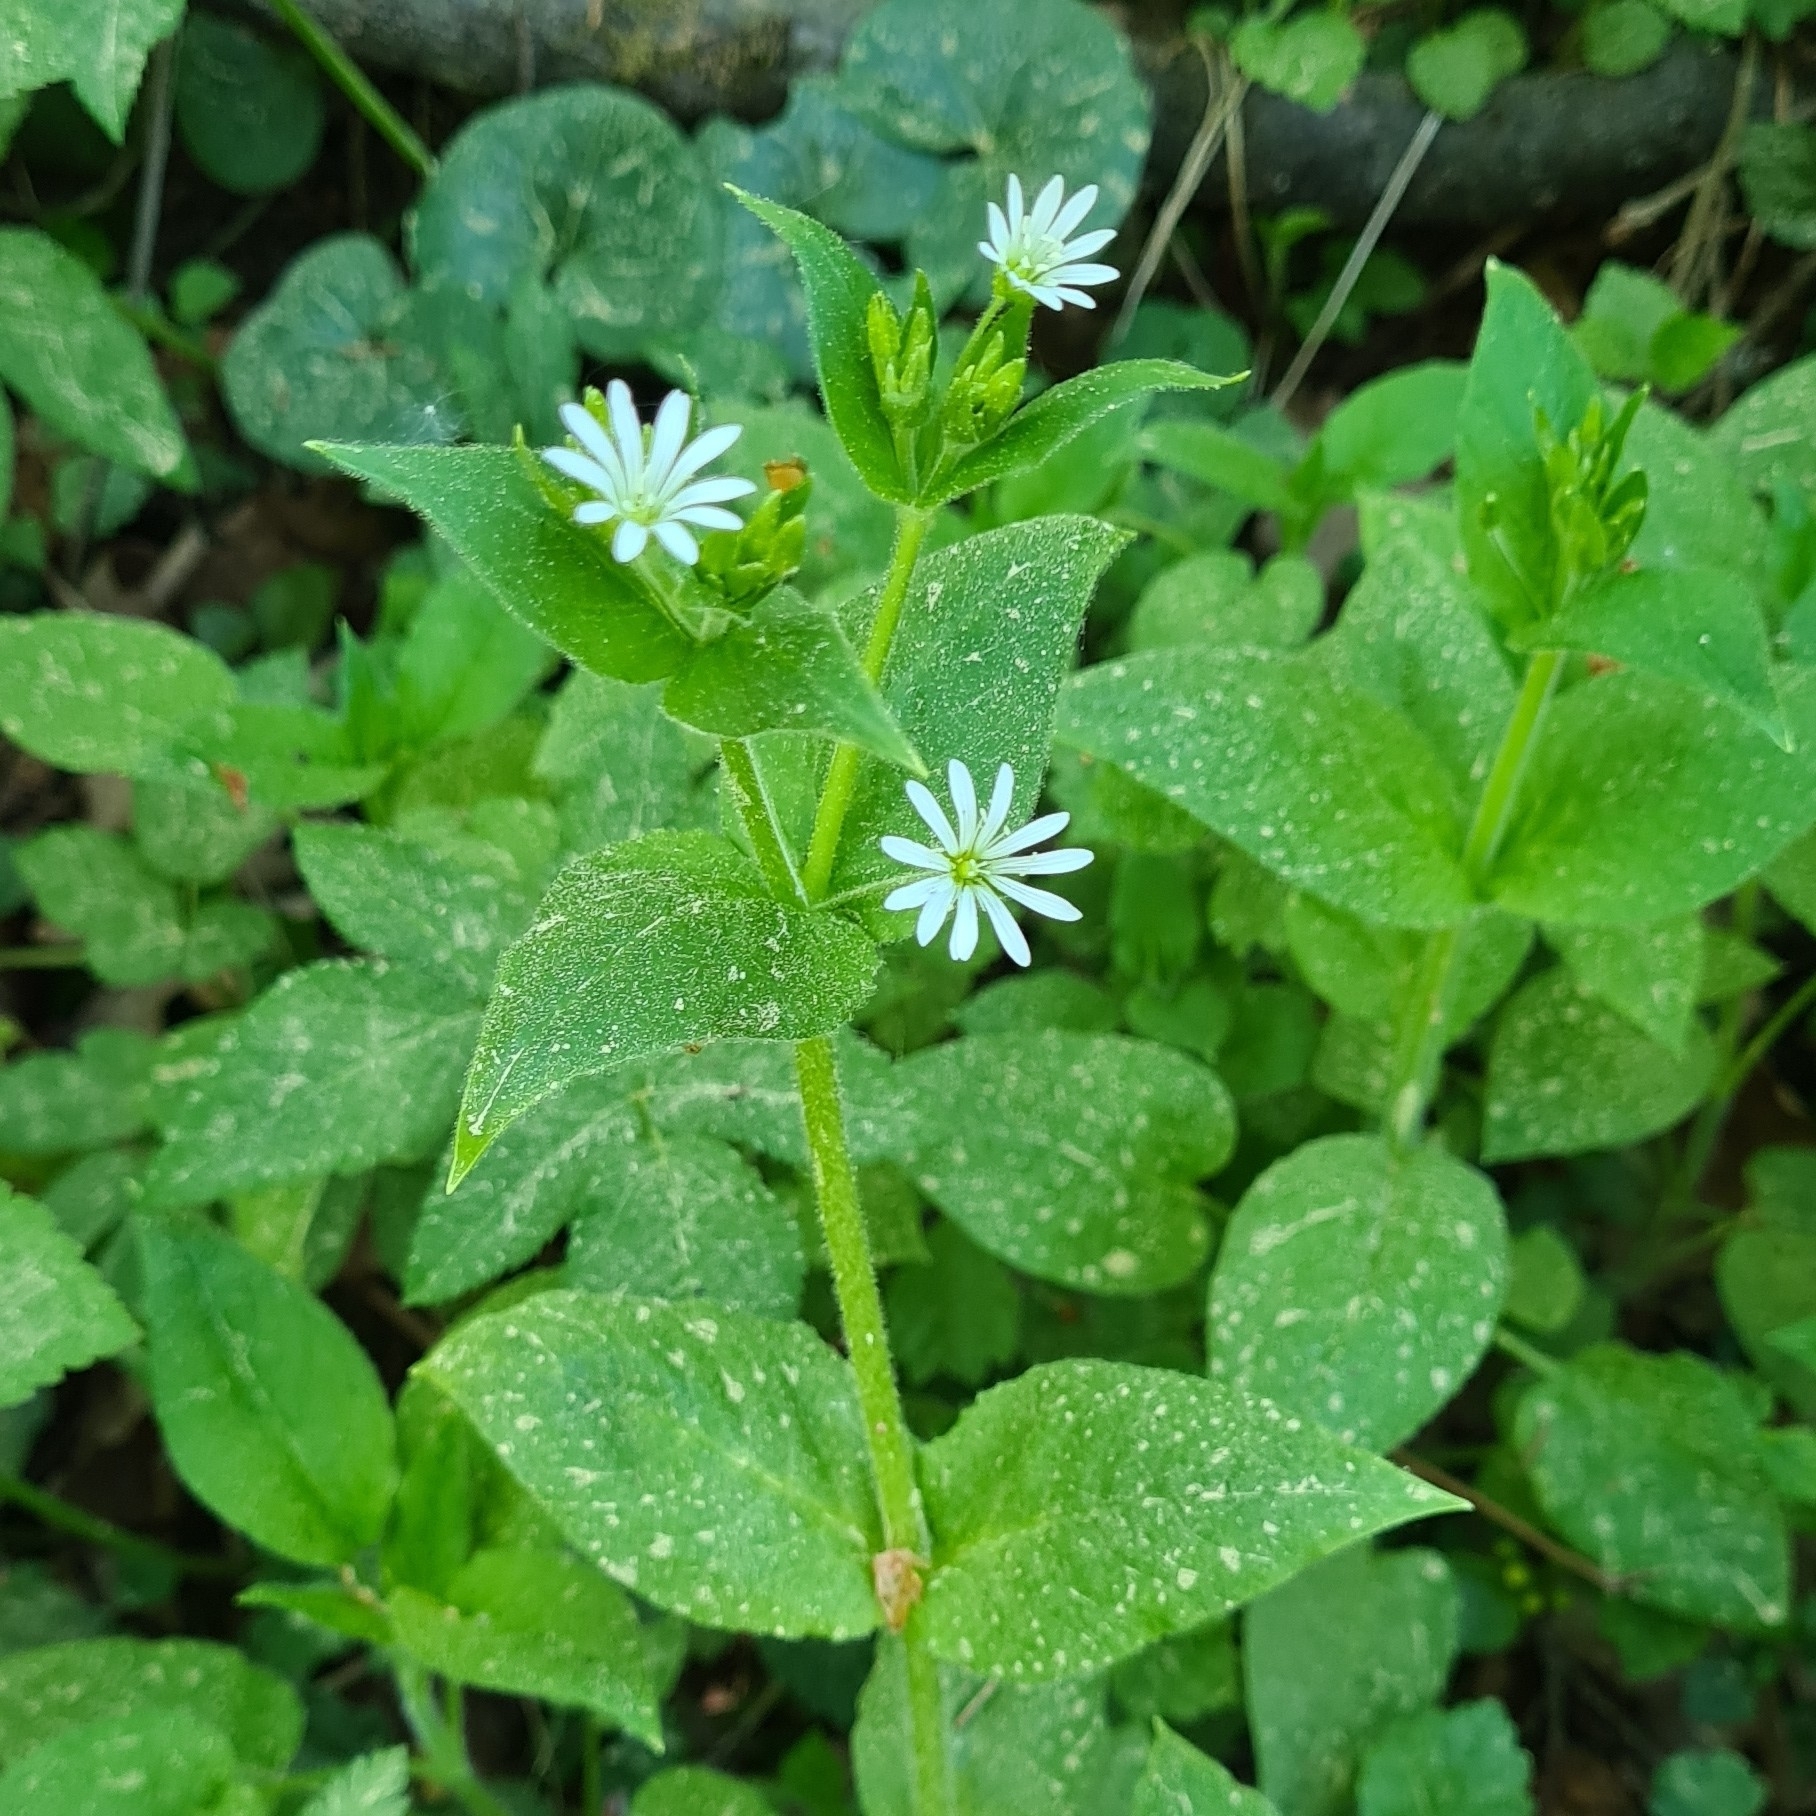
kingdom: Plantae
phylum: Tracheophyta
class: Magnoliopsida
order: Caryophyllales
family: Caryophyllaceae
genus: Stellaria
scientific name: Stellaria nemorum
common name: Wood stitchwort
